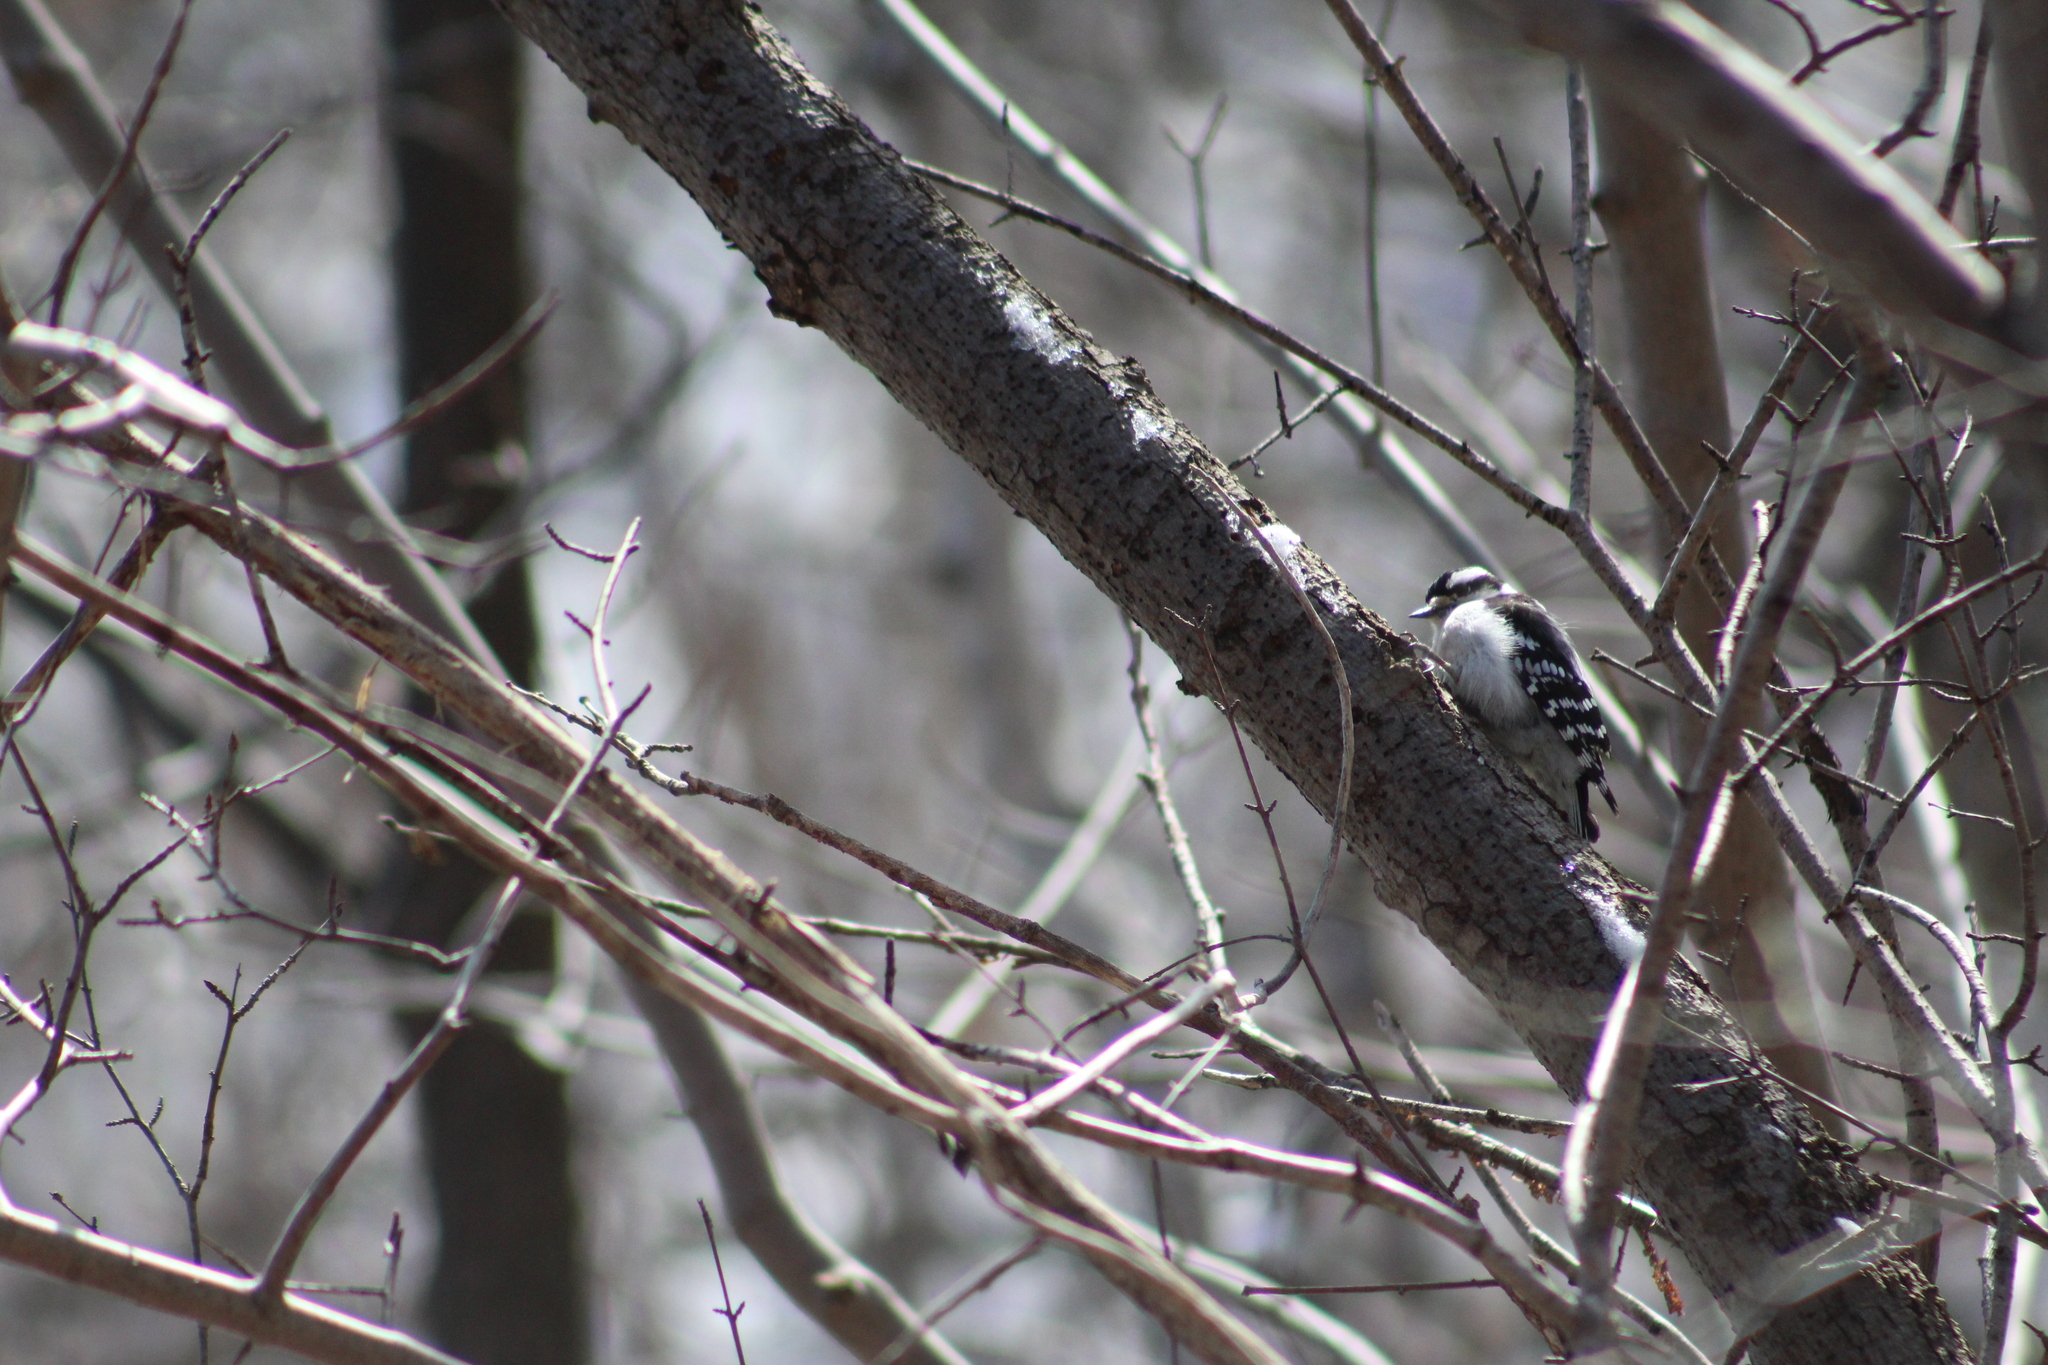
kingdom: Animalia
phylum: Chordata
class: Aves
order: Piciformes
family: Picidae
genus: Dryobates
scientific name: Dryobates pubescens
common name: Downy woodpecker
